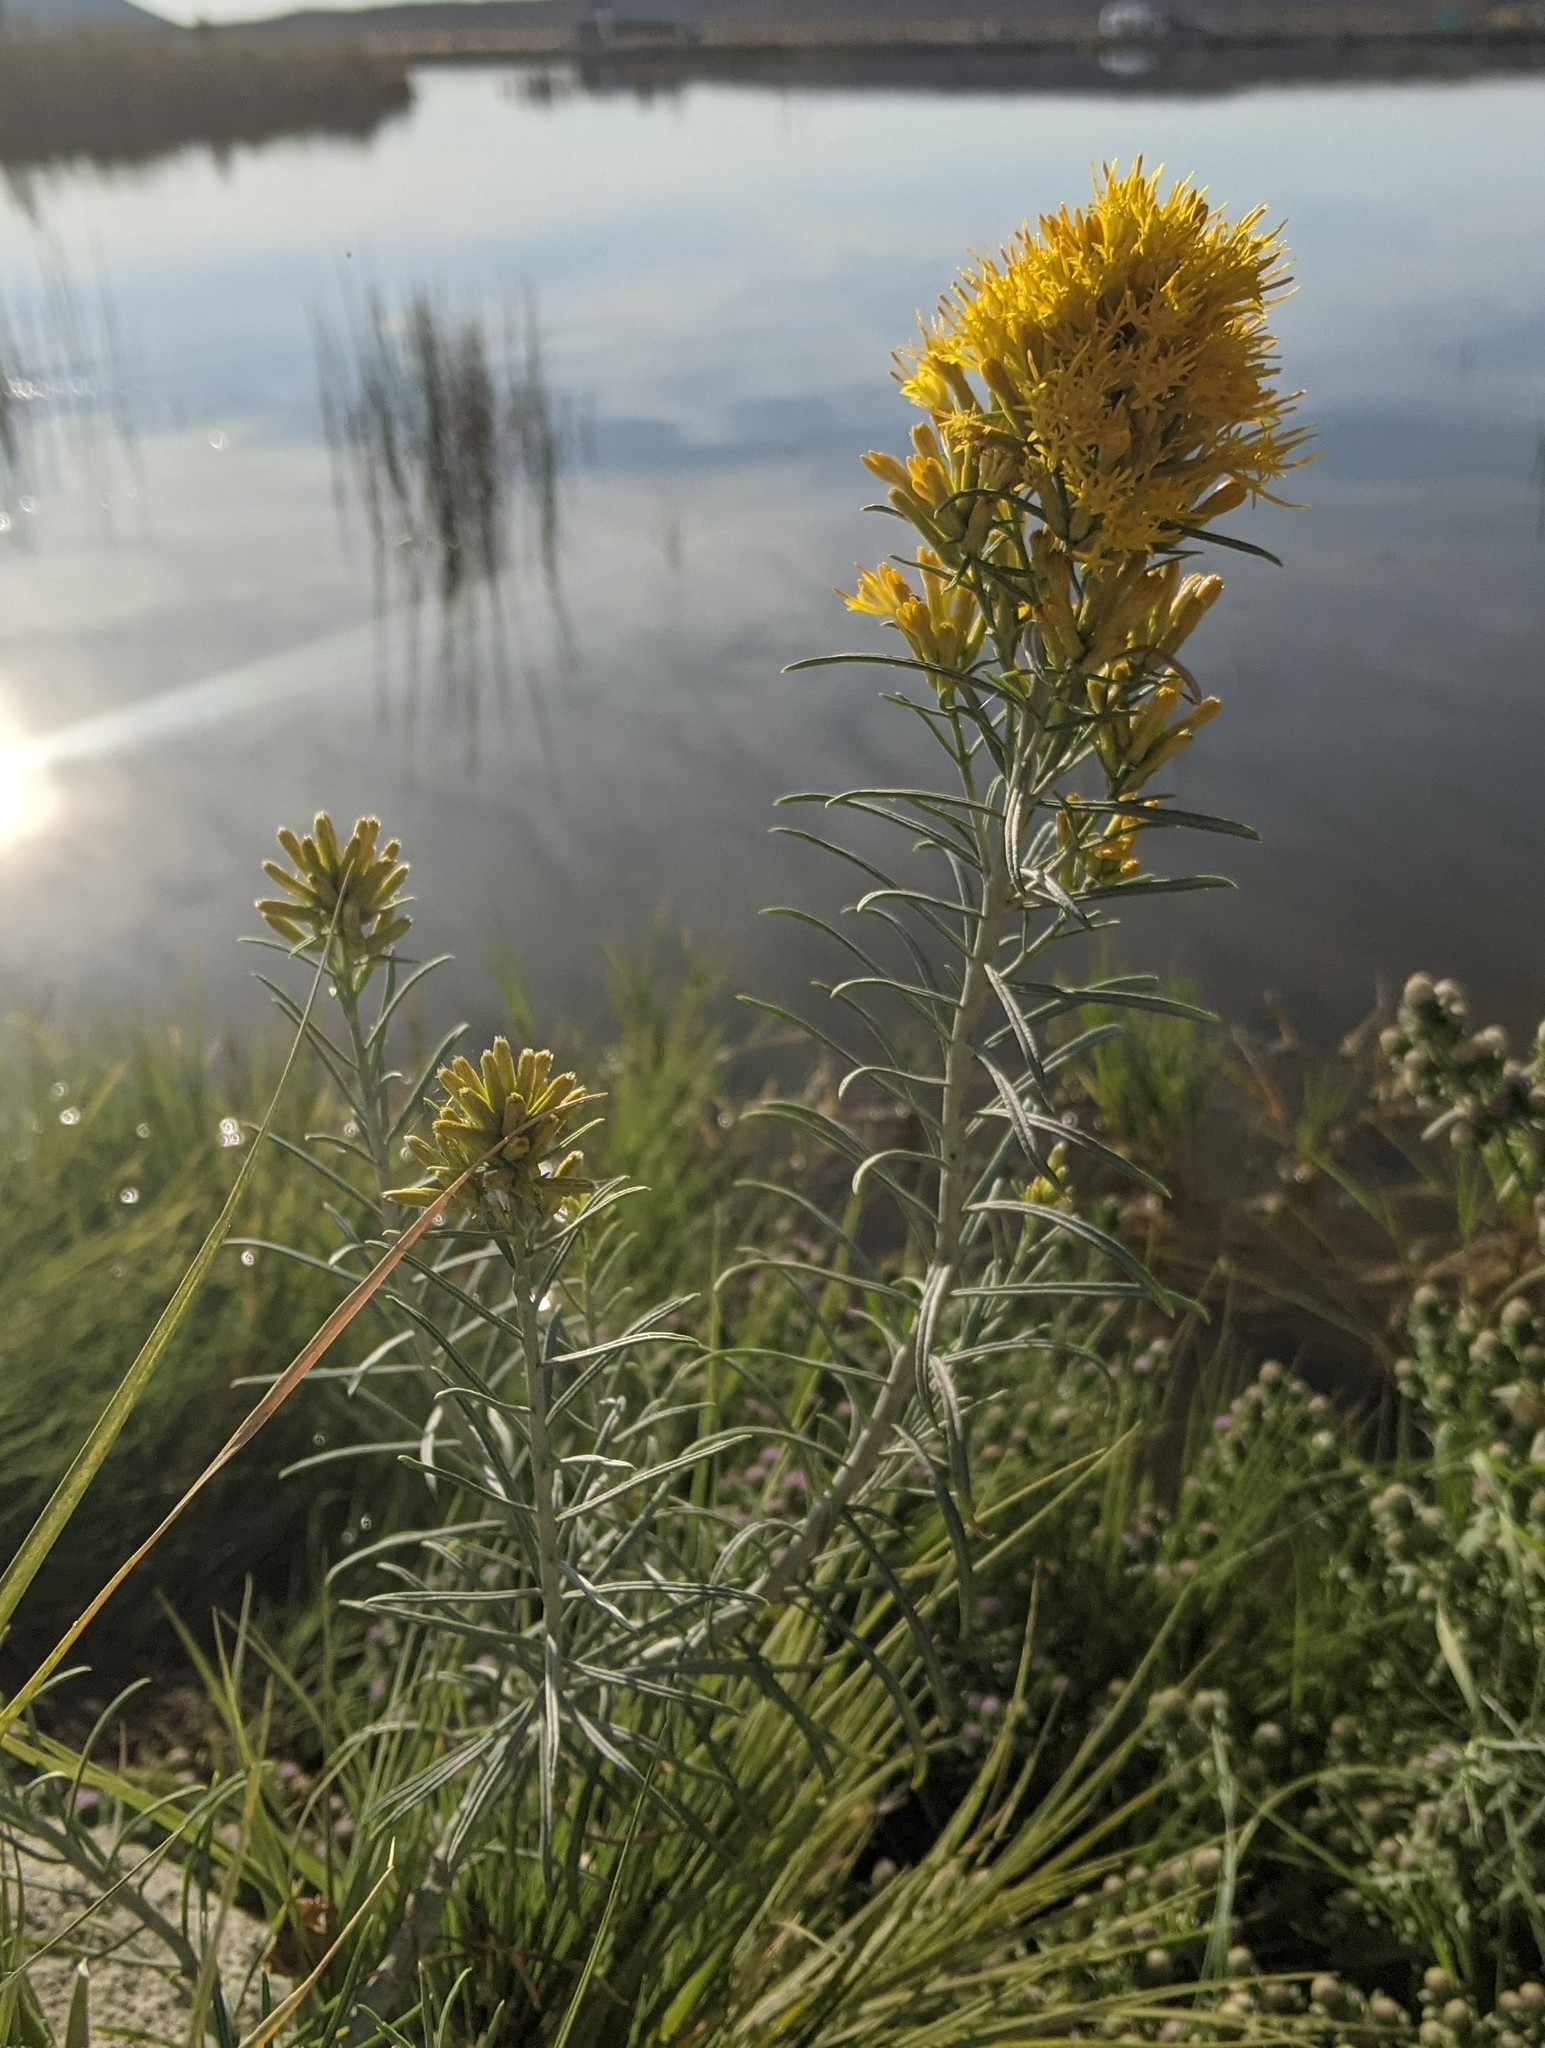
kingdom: Plantae
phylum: Tracheophyta
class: Magnoliopsida
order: Asterales
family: Asteraceae
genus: Ericameria
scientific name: Ericameria nauseosa
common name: Rubber rabbitbrush
